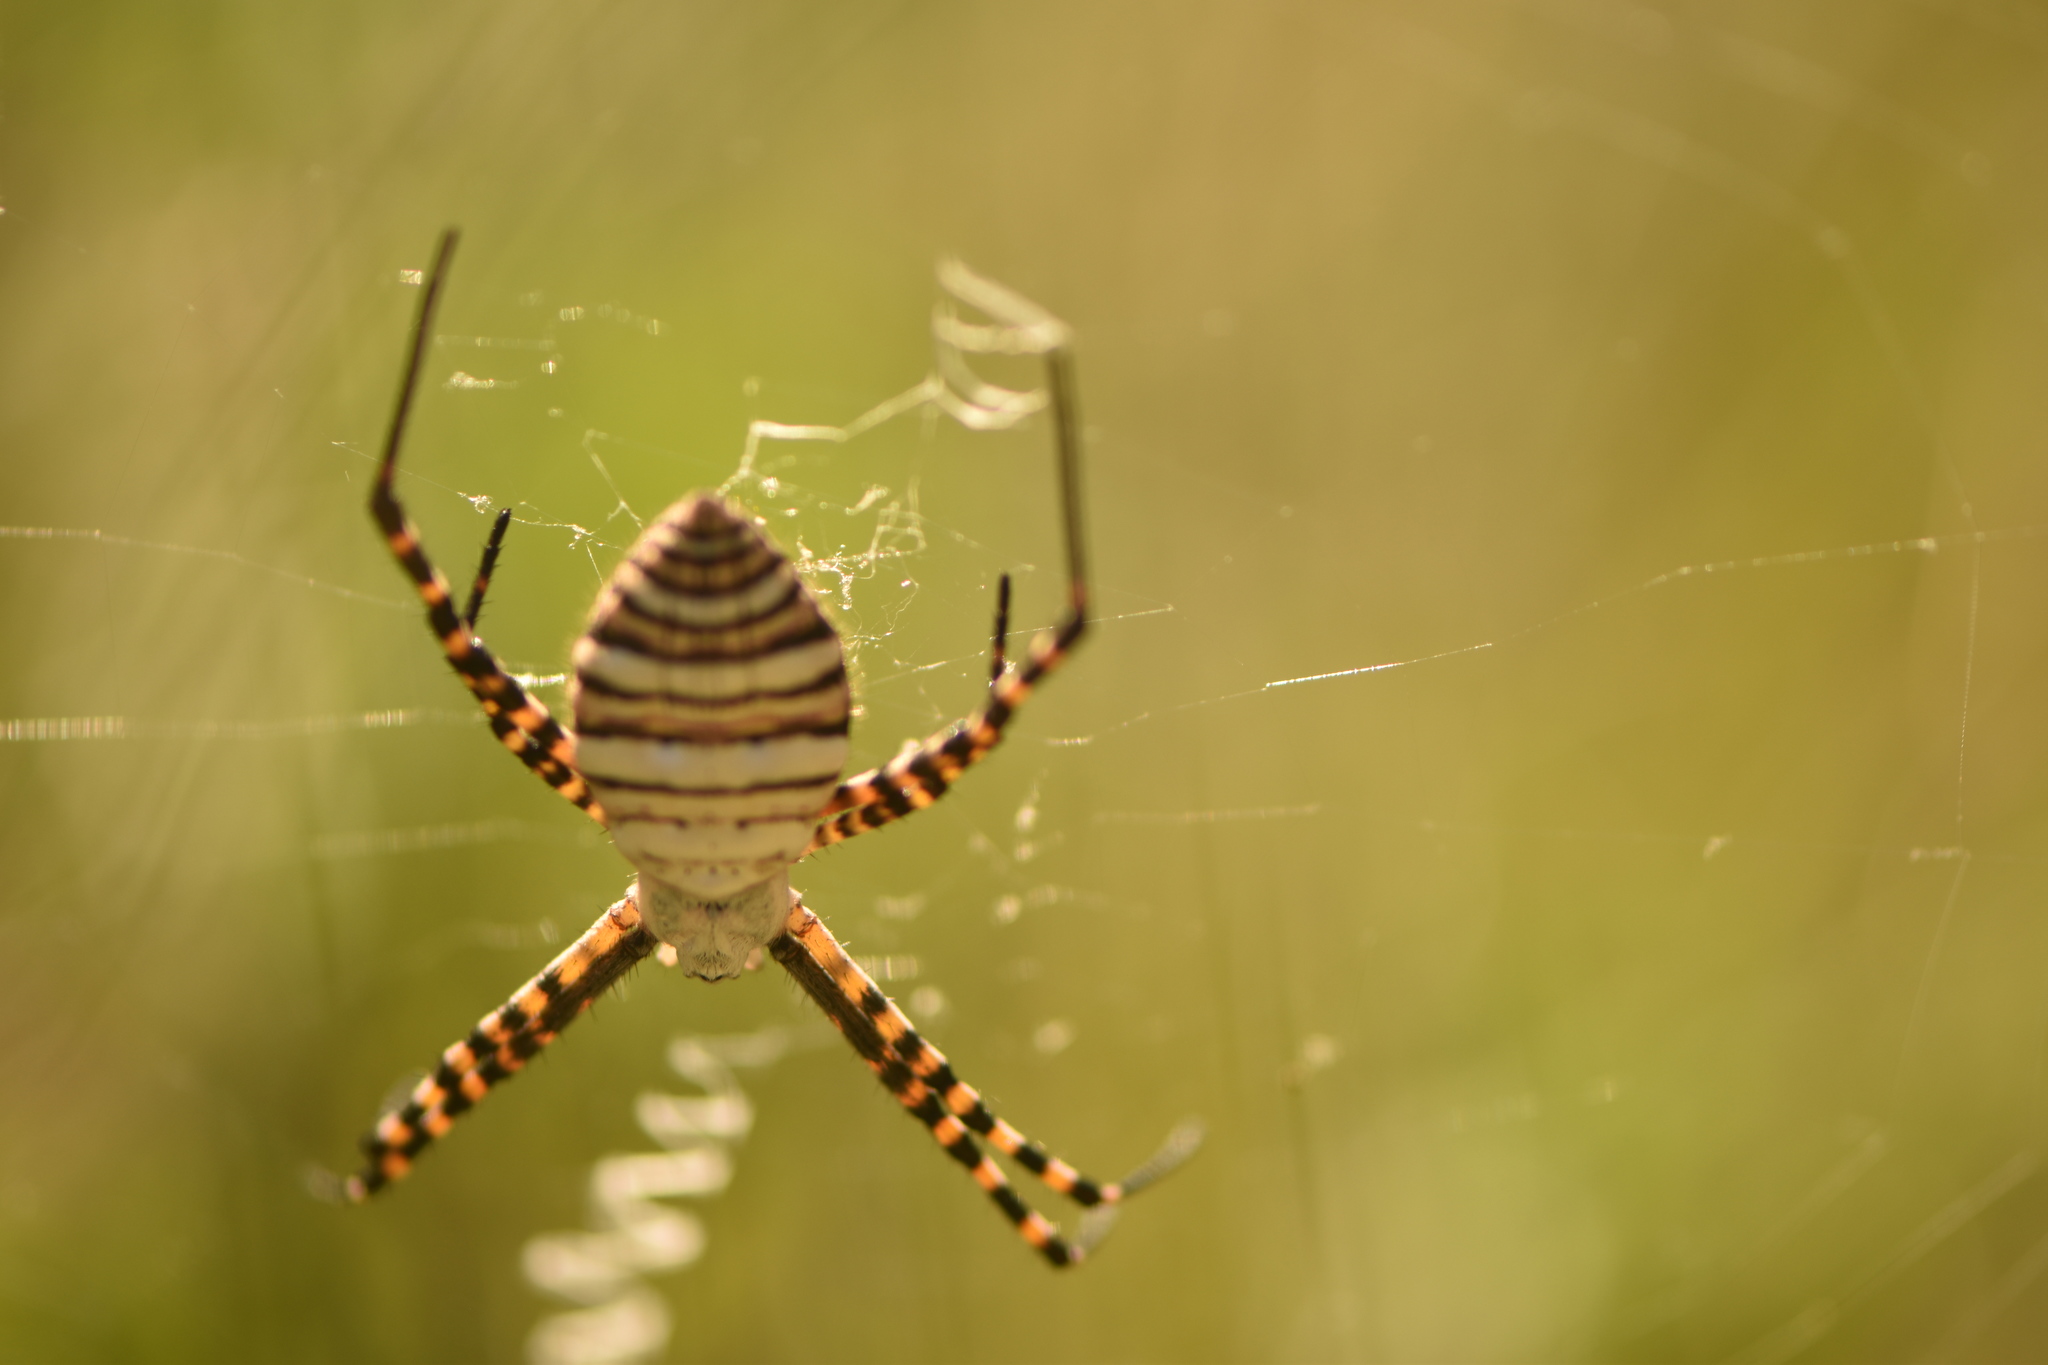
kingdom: Animalia
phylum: Arthropoda
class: Arachnida
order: Araneae
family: Araneidae
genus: Argiope
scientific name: Argiope trifasciata
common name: Banded garden spider
